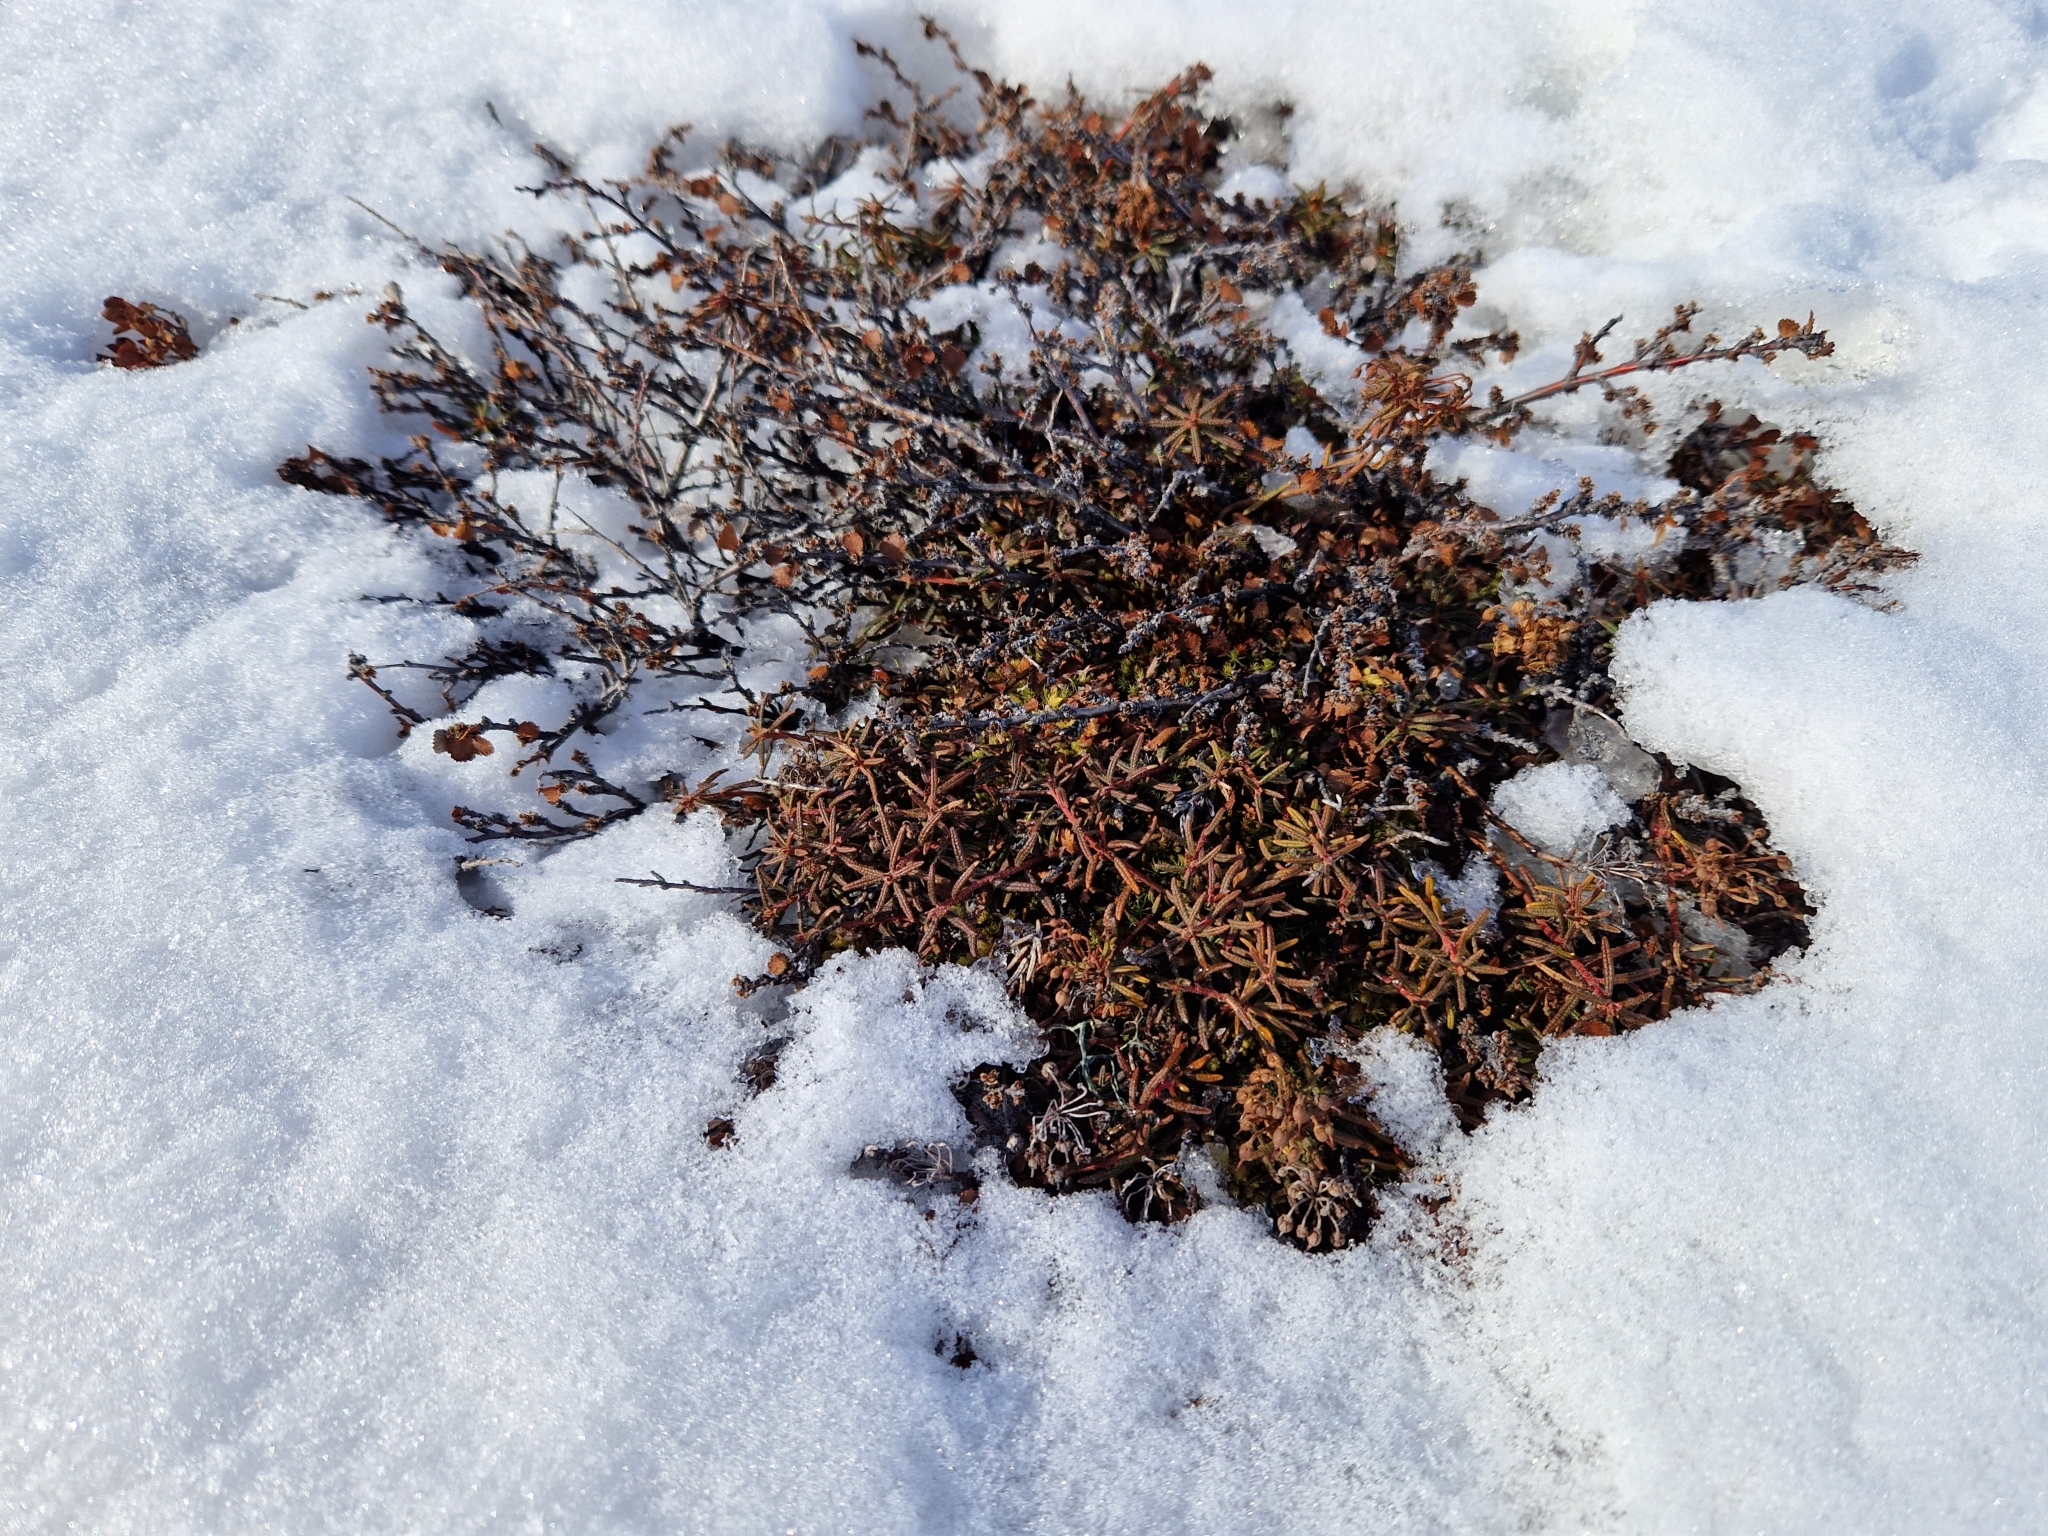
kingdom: Plantae
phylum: Tracheophyta
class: Magnoliopsida
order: Ericales
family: Ericaceae
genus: Rhododendron
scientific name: Rhododendron tomentosum
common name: Marsh labrador tea
